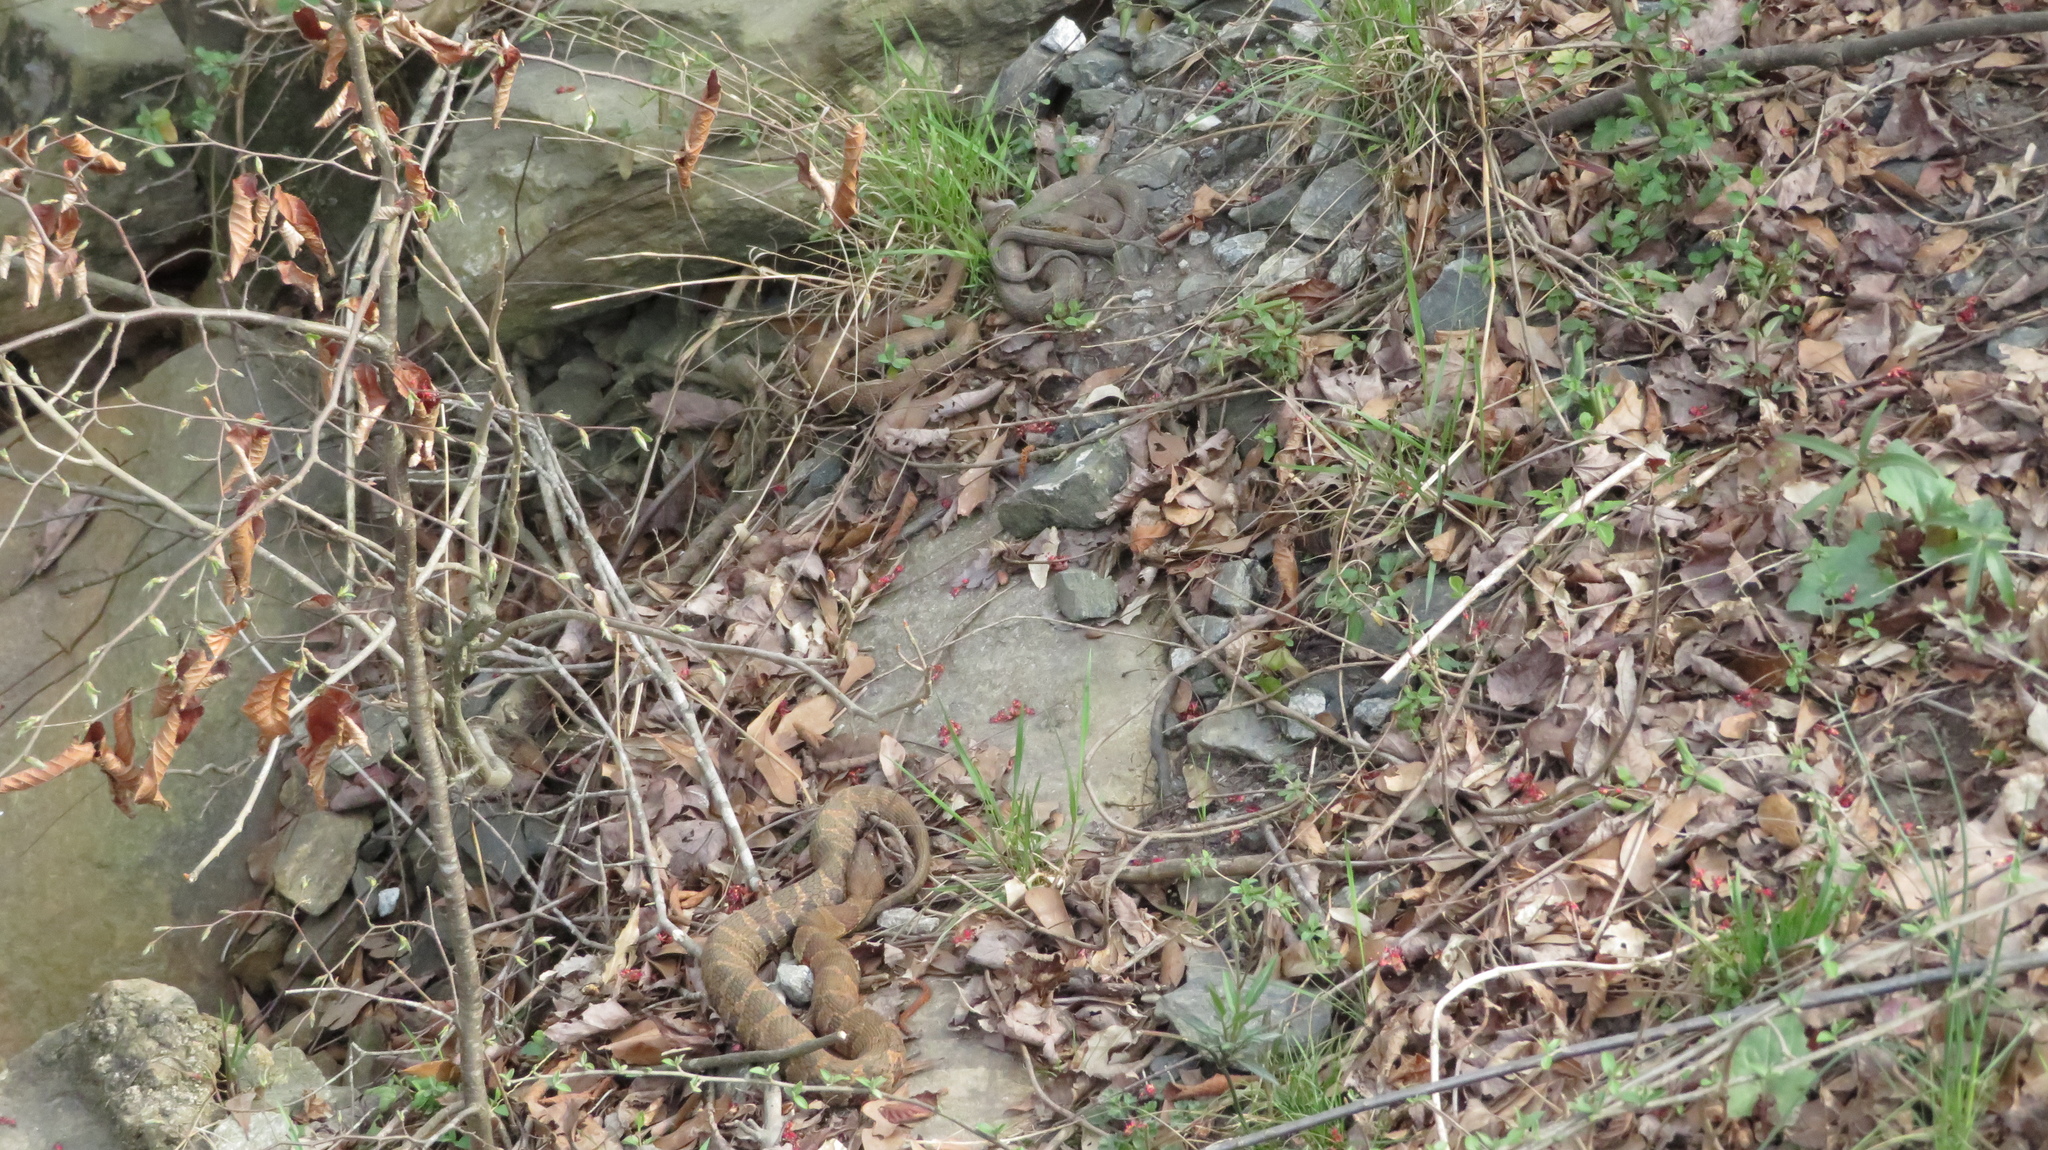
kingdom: Animalia
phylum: Chordata
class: Squamata
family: Colubridae
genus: Nerodia
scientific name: Nerodia sipedon
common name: Northern water snake
